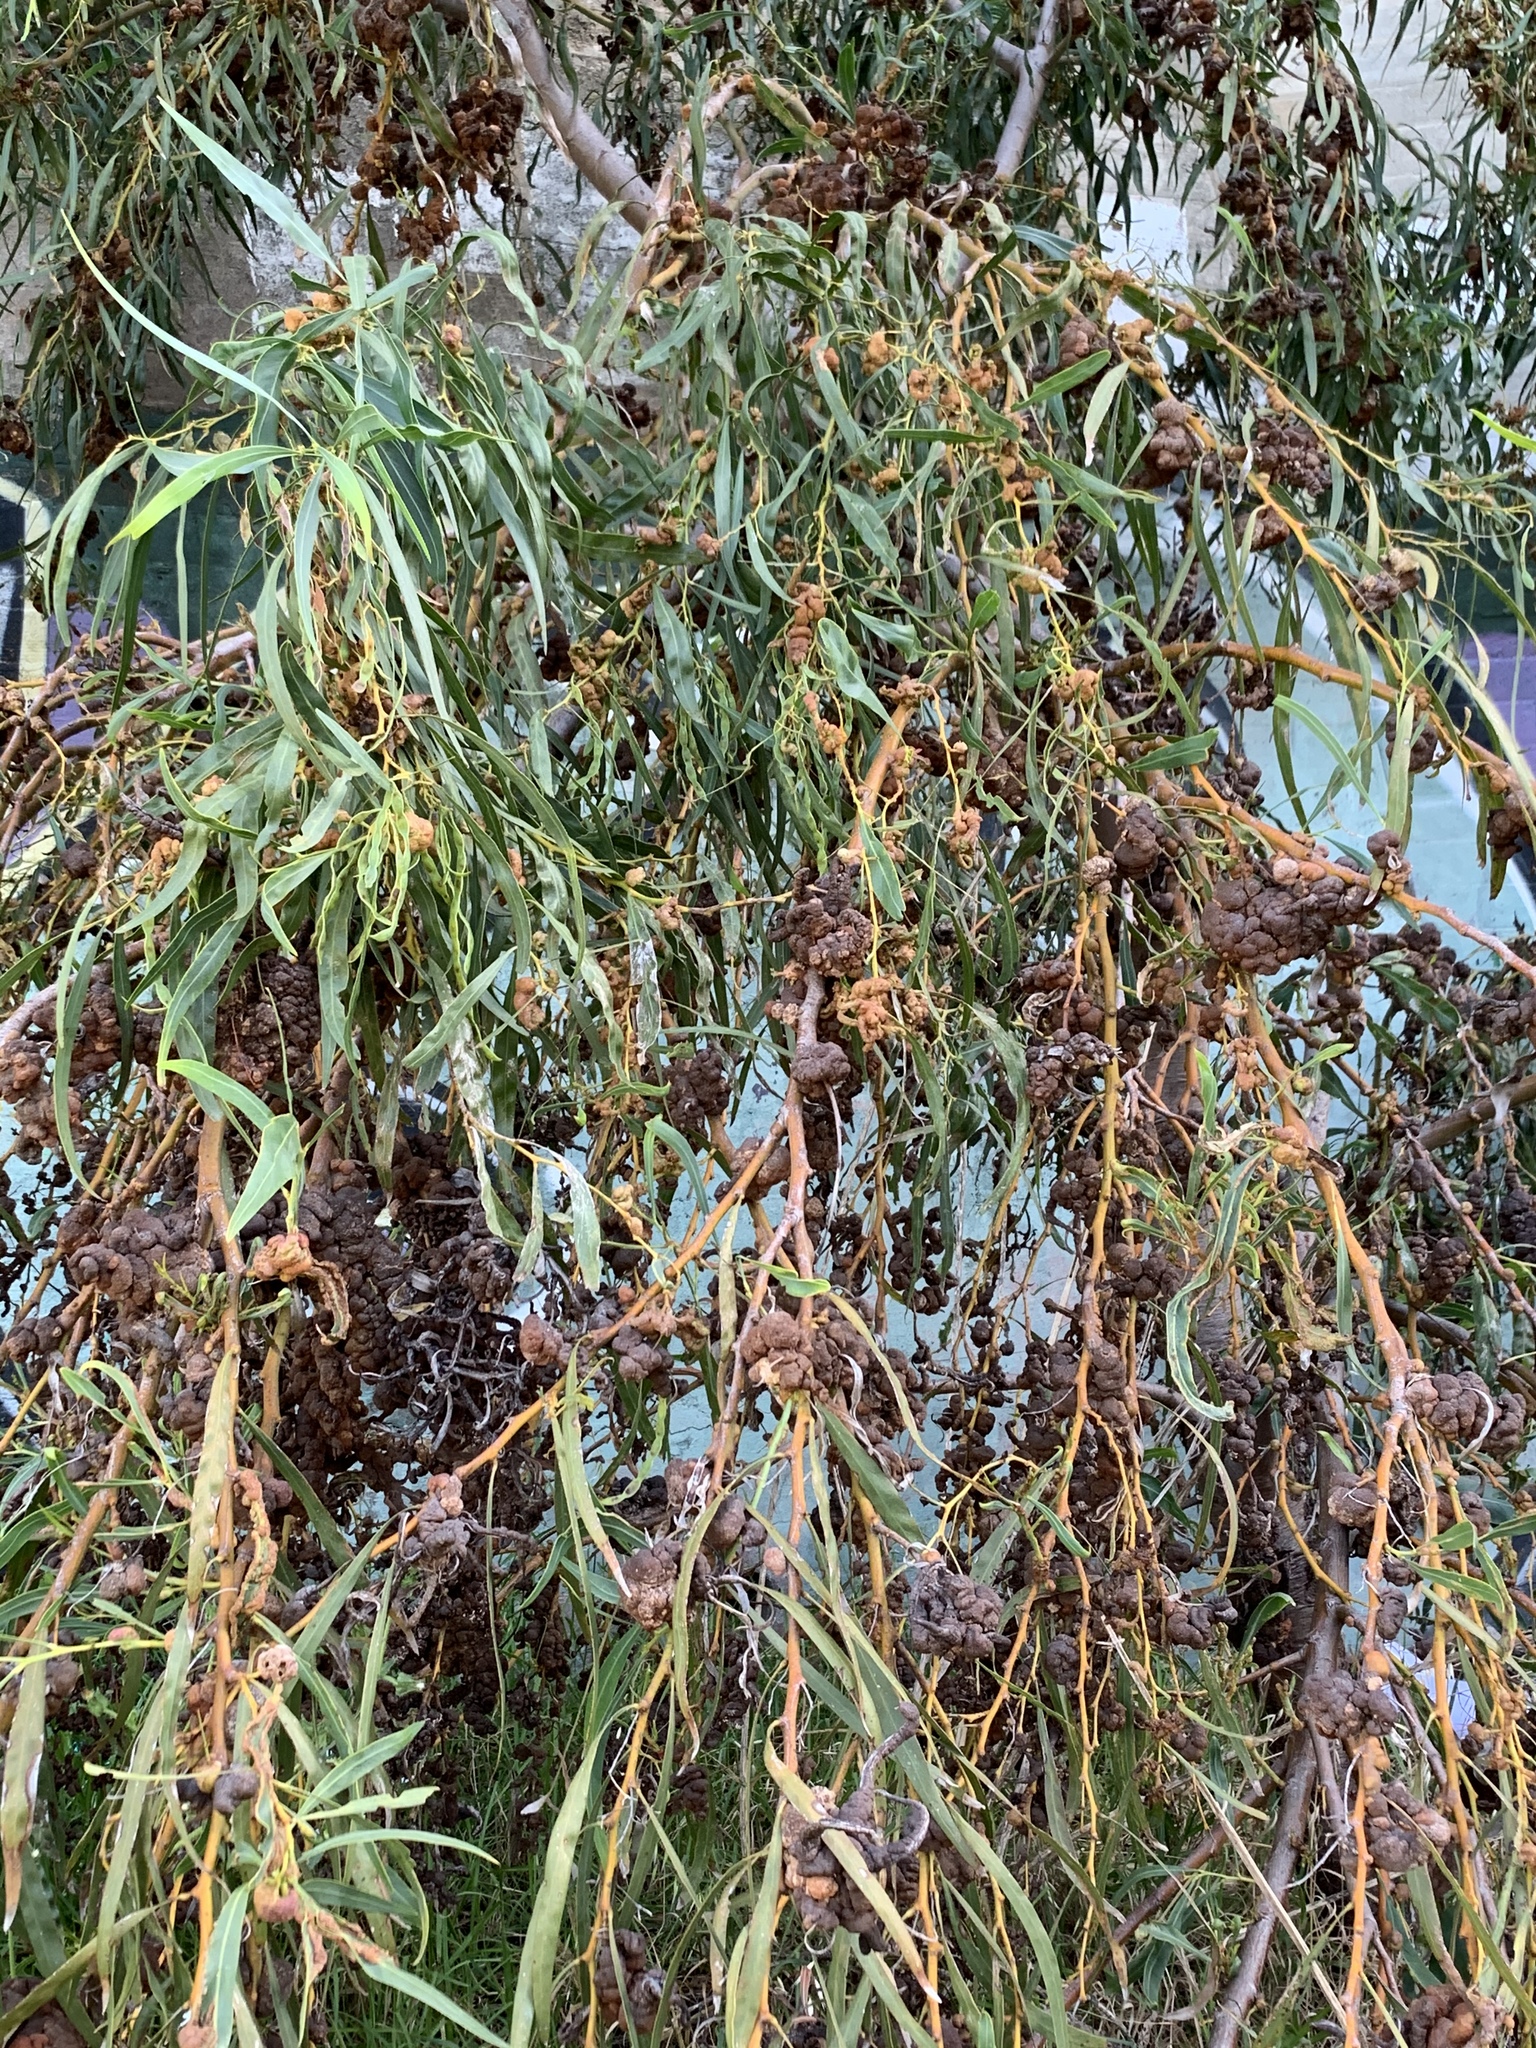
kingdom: Plantae
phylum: Tracheophyta
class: Magnoliopsida
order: Fabales
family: Fabaceae
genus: Acacia
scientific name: Acacia saligna
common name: Orange wattle
